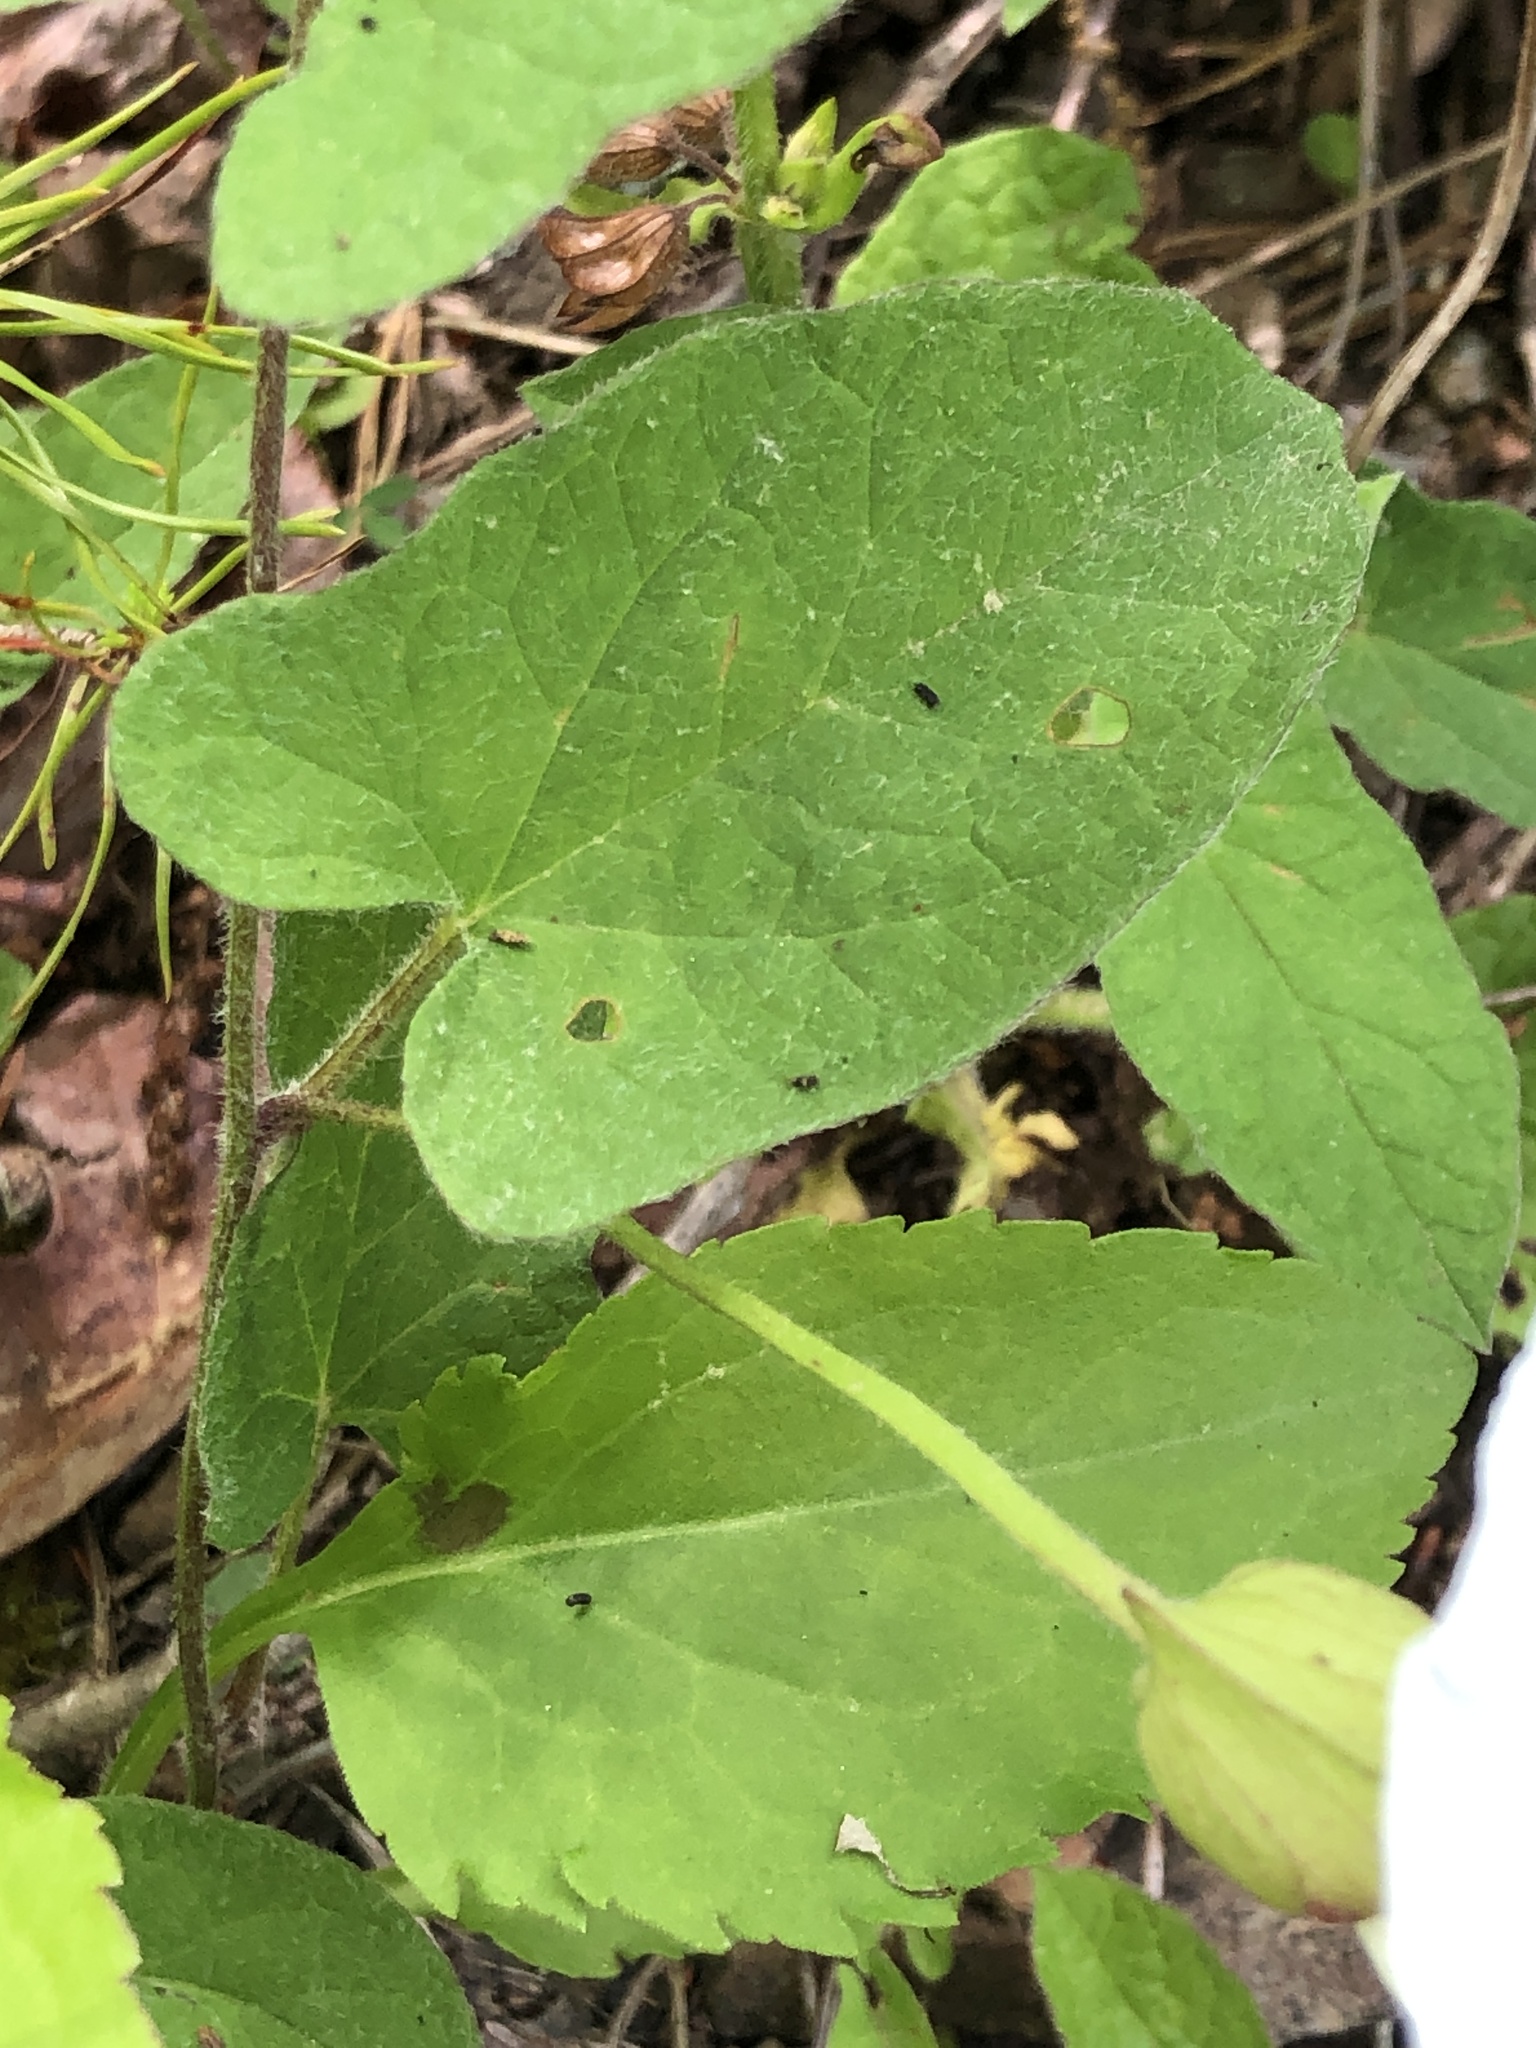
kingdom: Plantae
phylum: Tracheophyta
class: Magnoliopsida
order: Solanales
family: Convolvulaceae
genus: Calystegia
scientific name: Calystegia spithamaea
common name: Dwarf bindweed
